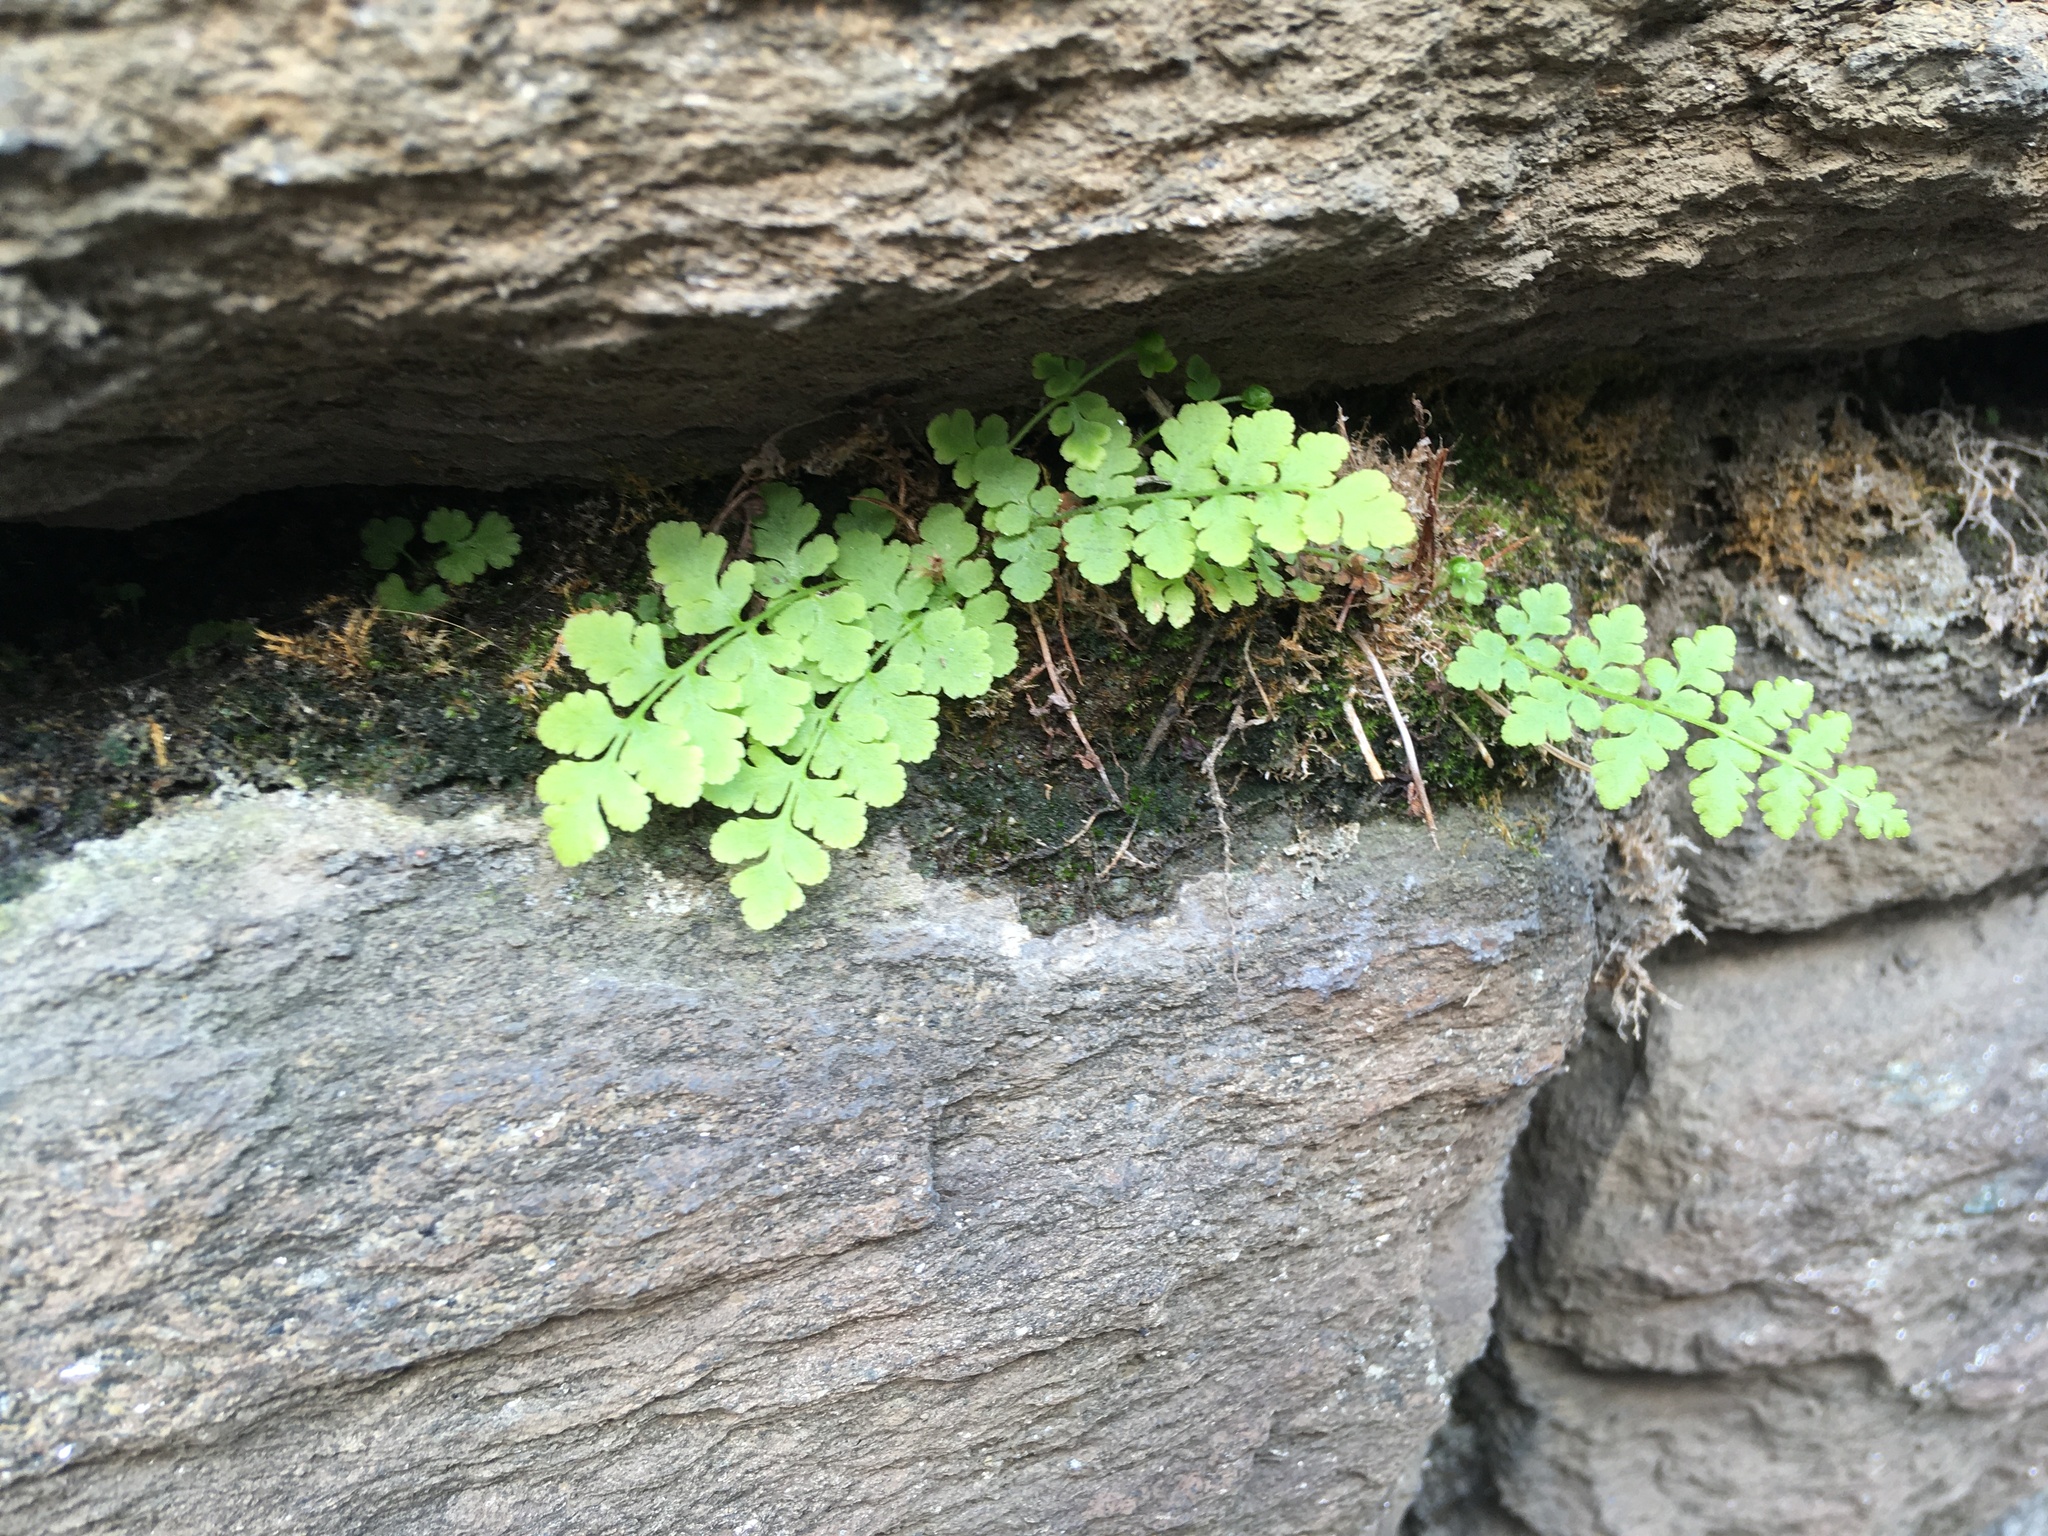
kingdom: Plantae
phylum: Tracheophyta
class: Polypodiopsida
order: Polypodiales
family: Woodsiaceae
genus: Physematium
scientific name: Physematium obtusum
